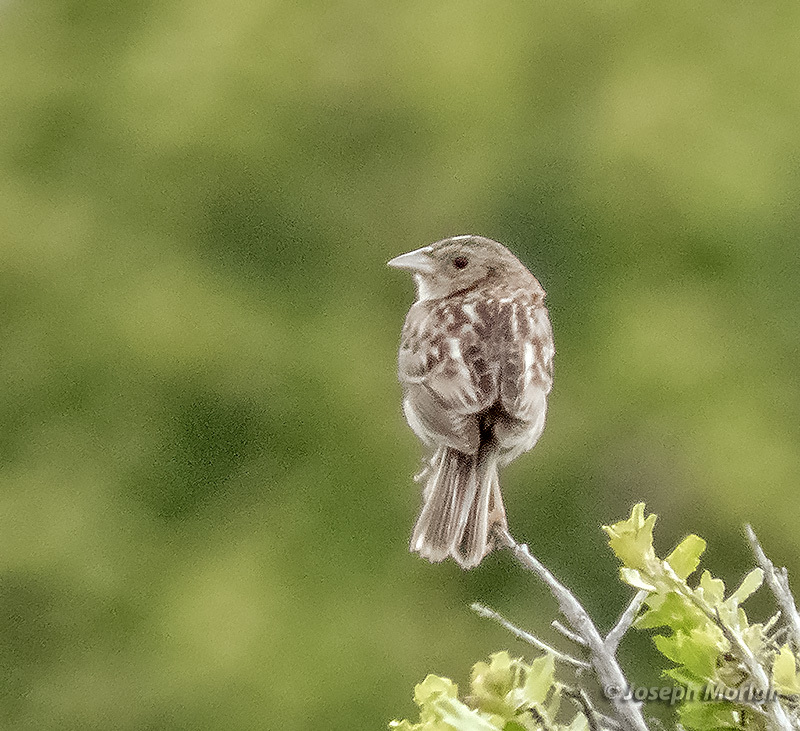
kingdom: Animalia
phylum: Chordata
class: Aves
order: Passeriformes
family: Passerellidae
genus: Ammodramus
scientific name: Ammodramus savannarum
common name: Grasshopper sparrow
